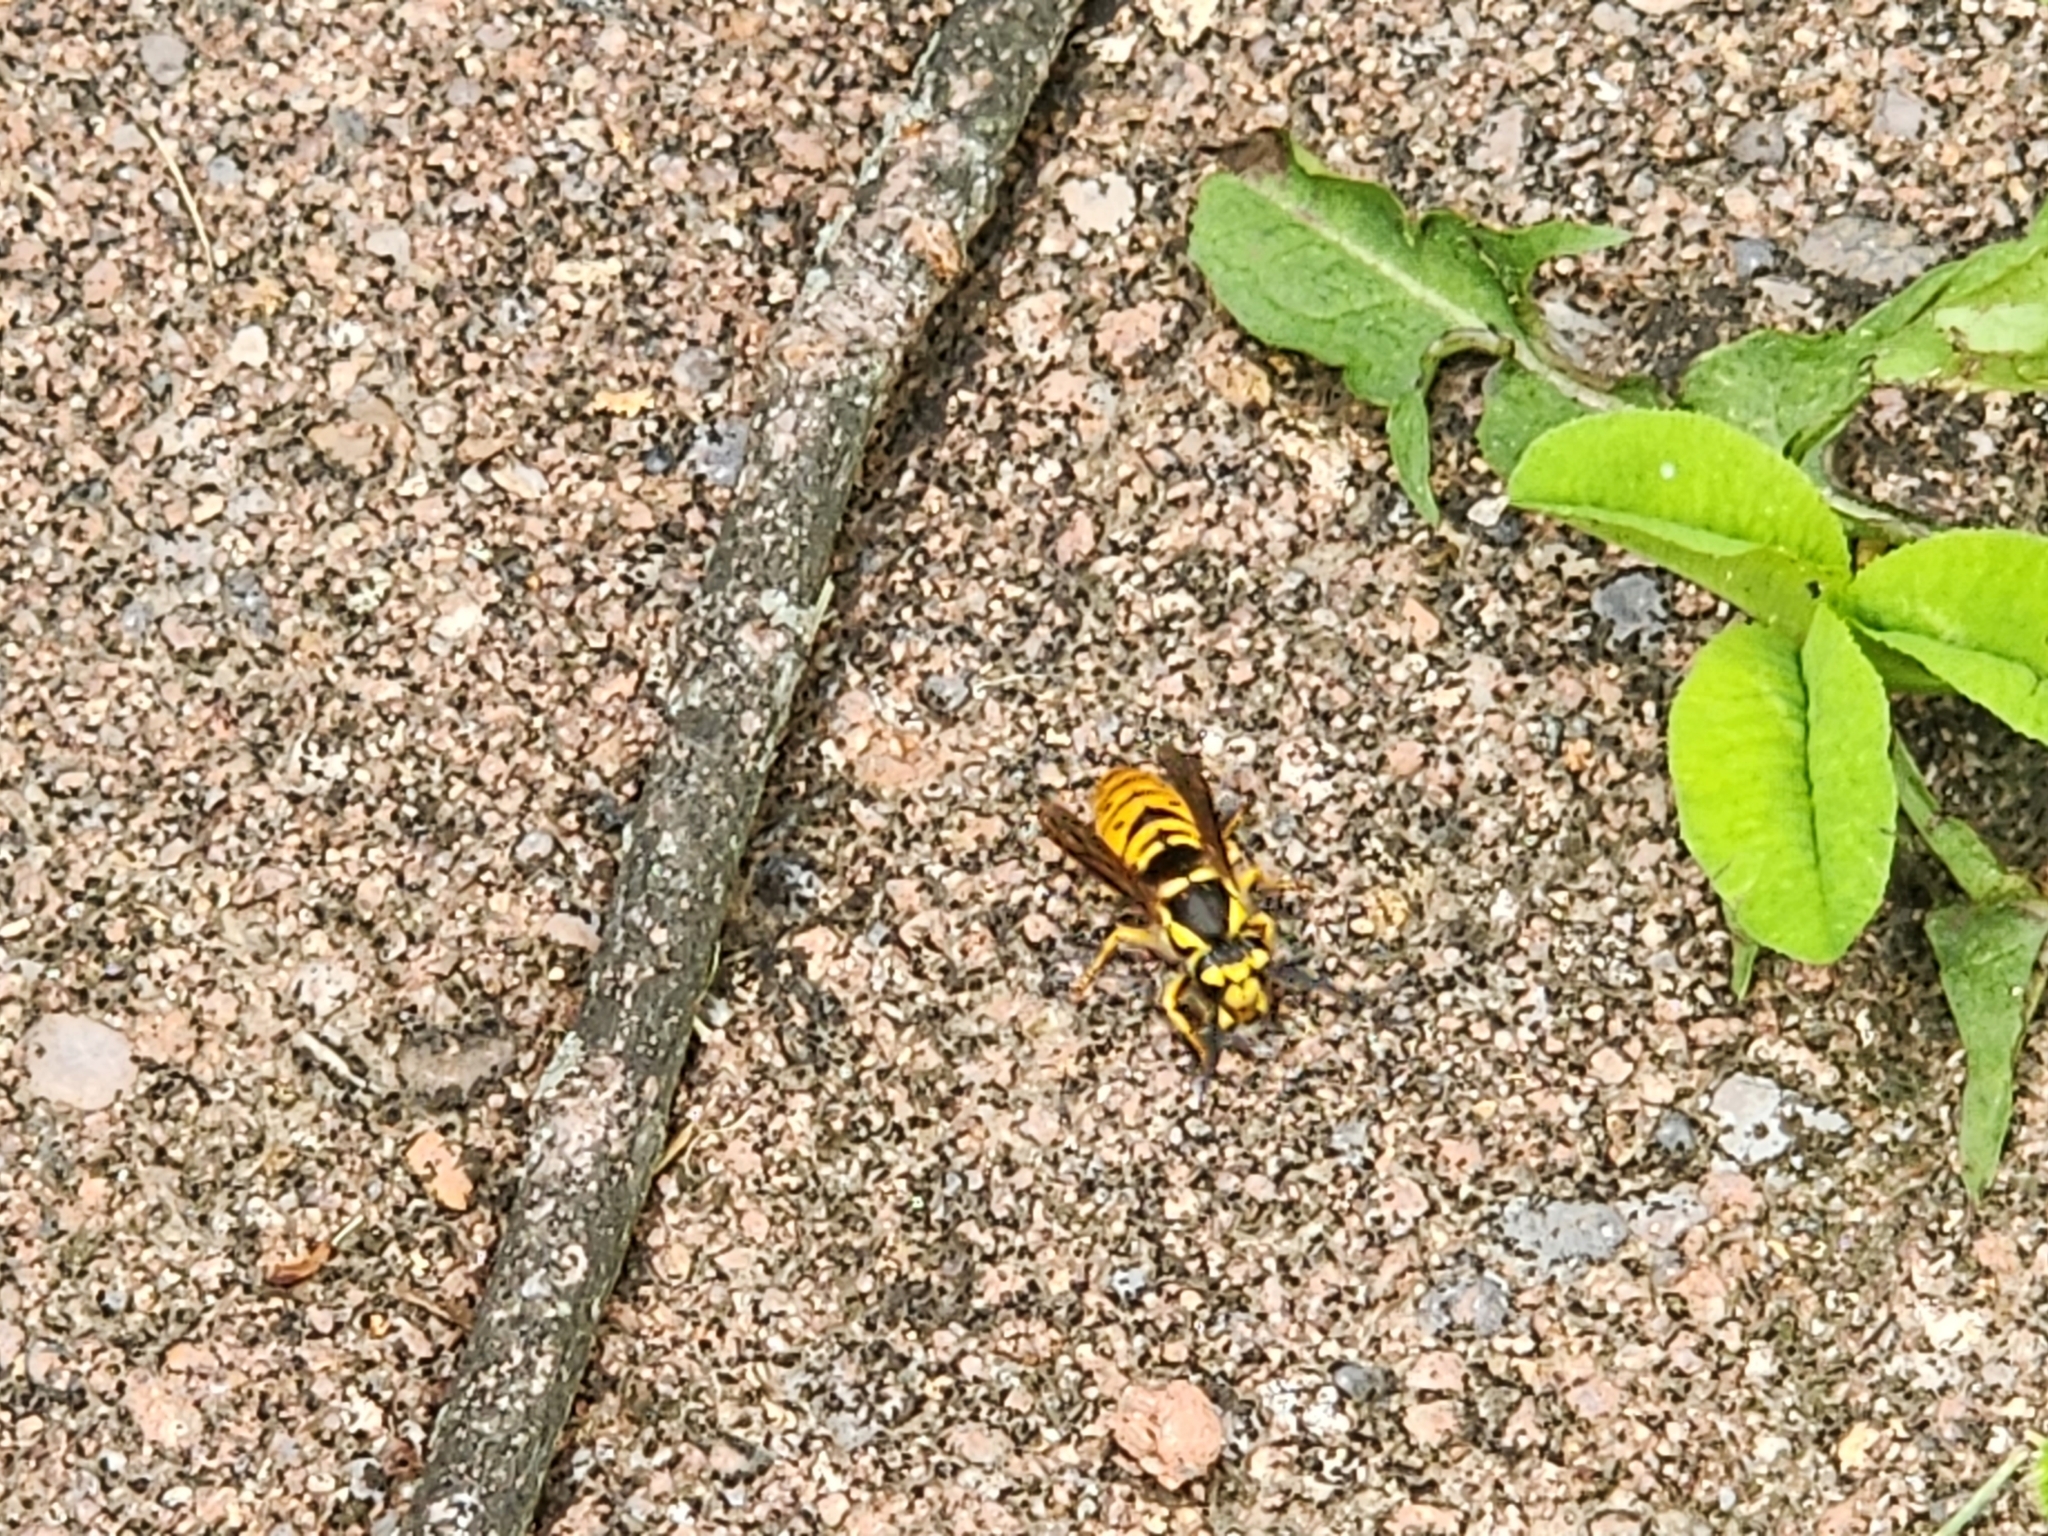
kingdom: Animalia
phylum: Arthropoda
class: Insecta
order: Hymenoptera
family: Vespidae
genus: Vespula
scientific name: Vespula maculifrons
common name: Eastern yellowjacket
